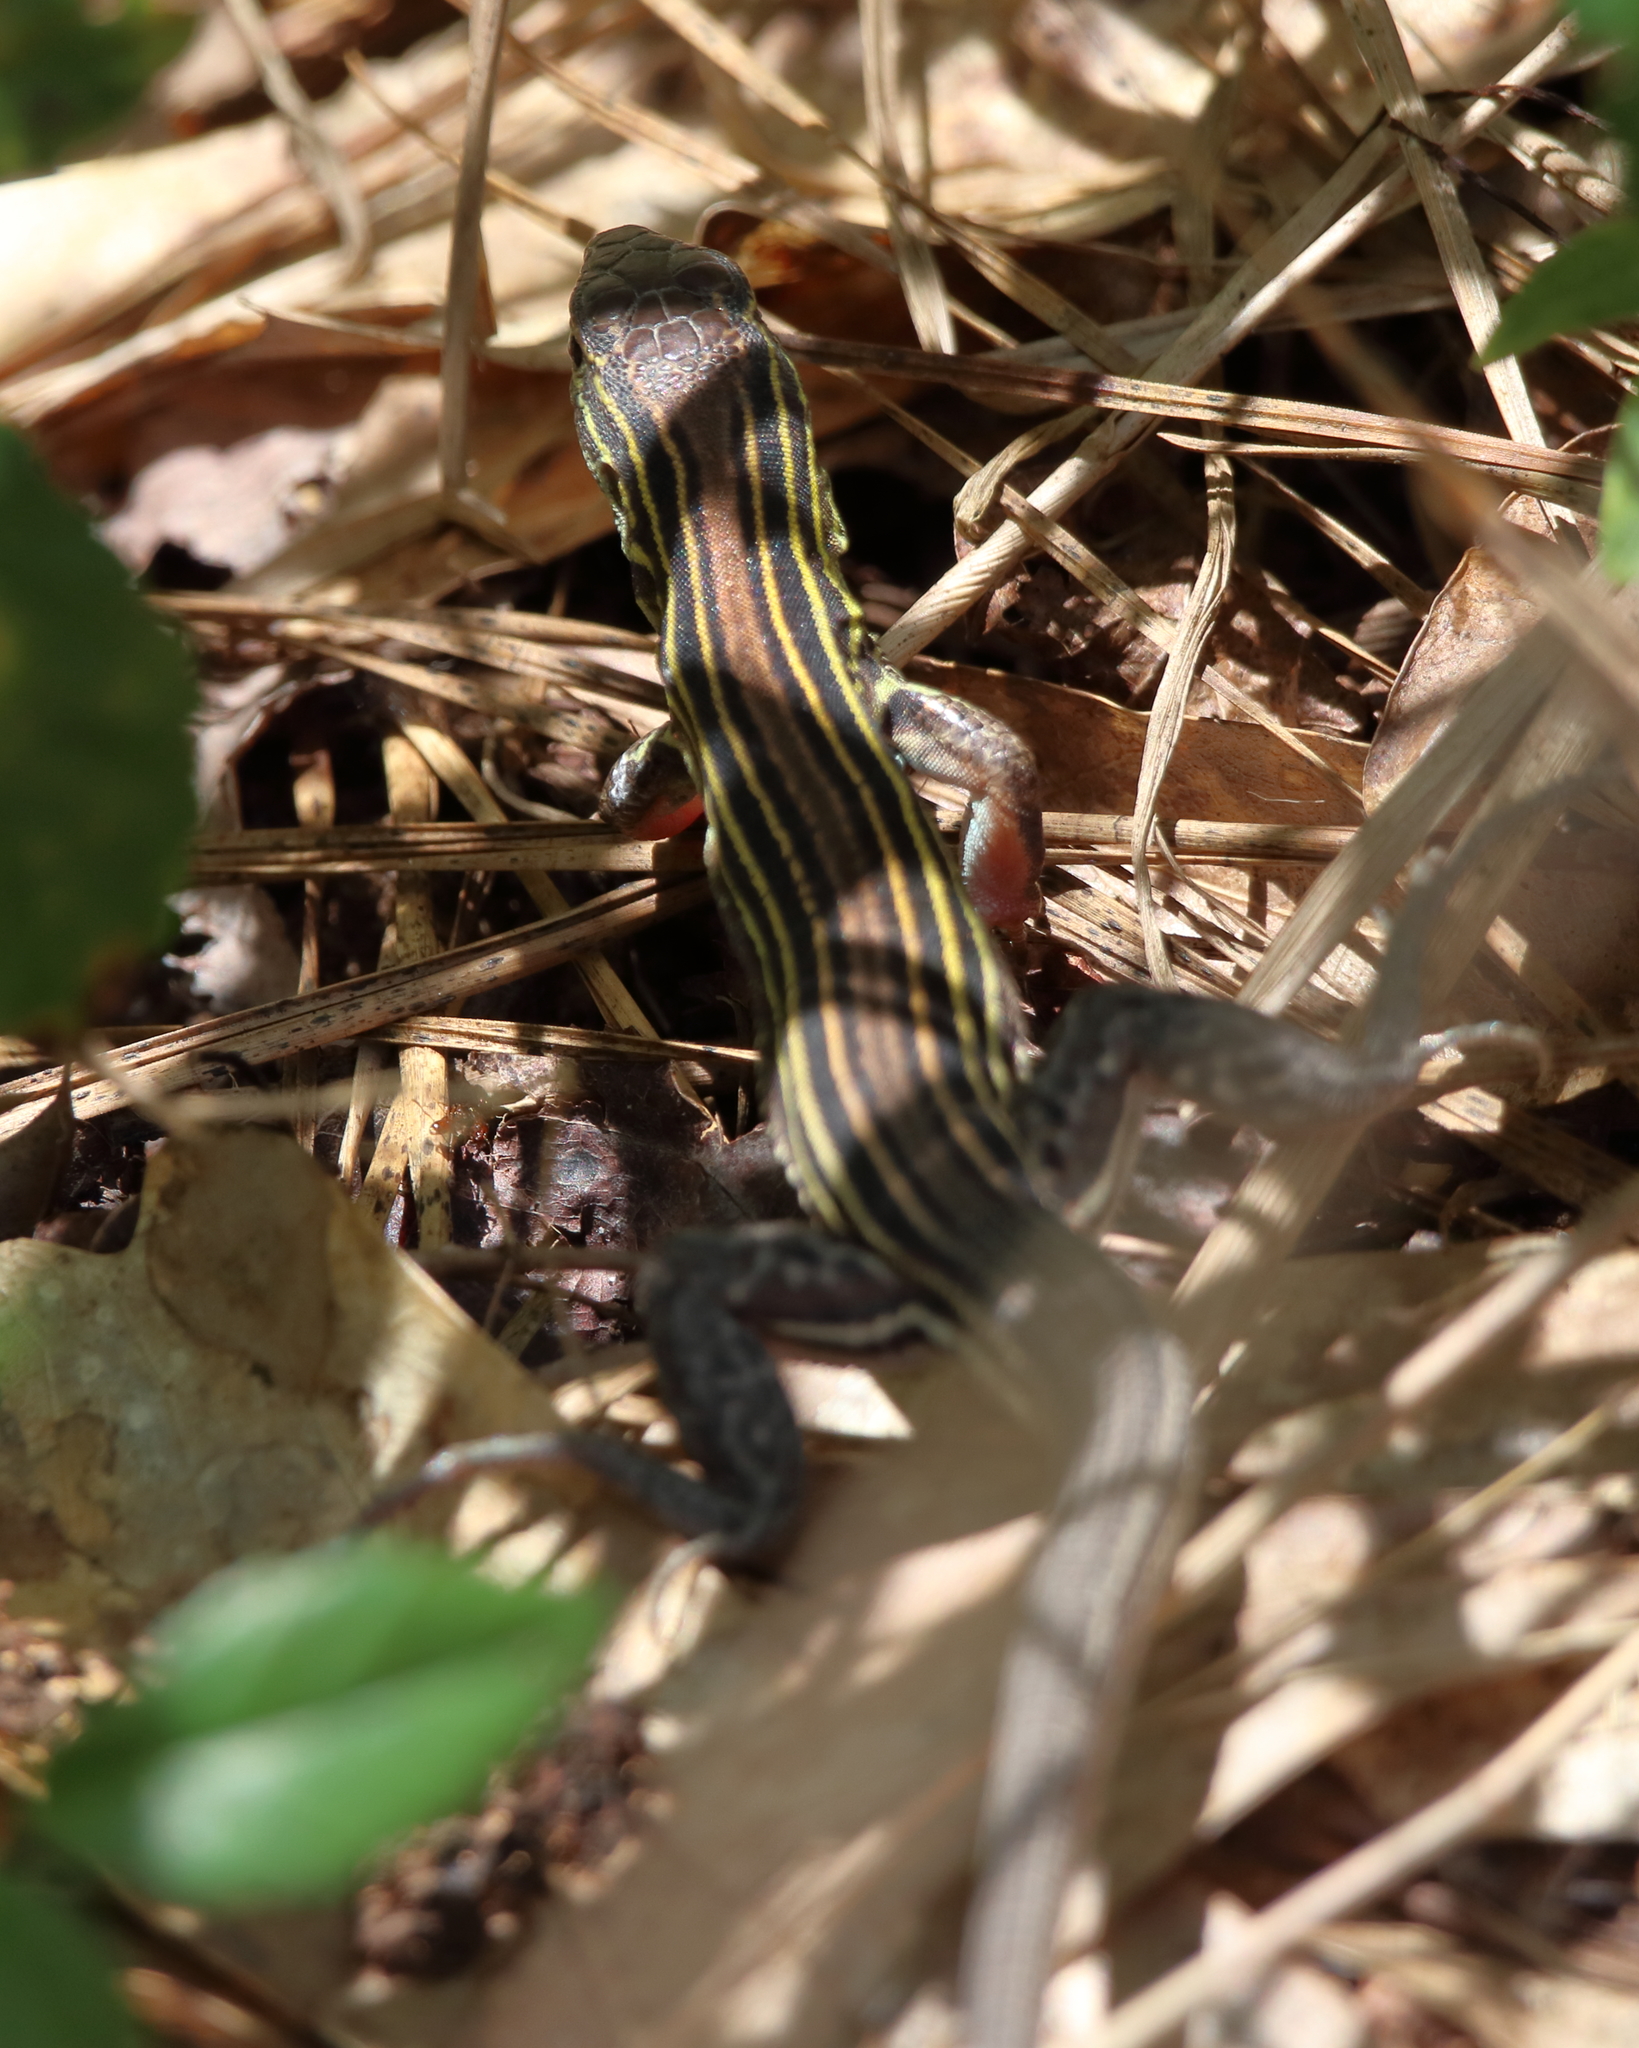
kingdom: Animalia
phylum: Chordata
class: Squamata
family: Teiidae
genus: Aspidoscelis
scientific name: Aspidoscelis sexlineatus
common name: Six-lined racerunner
